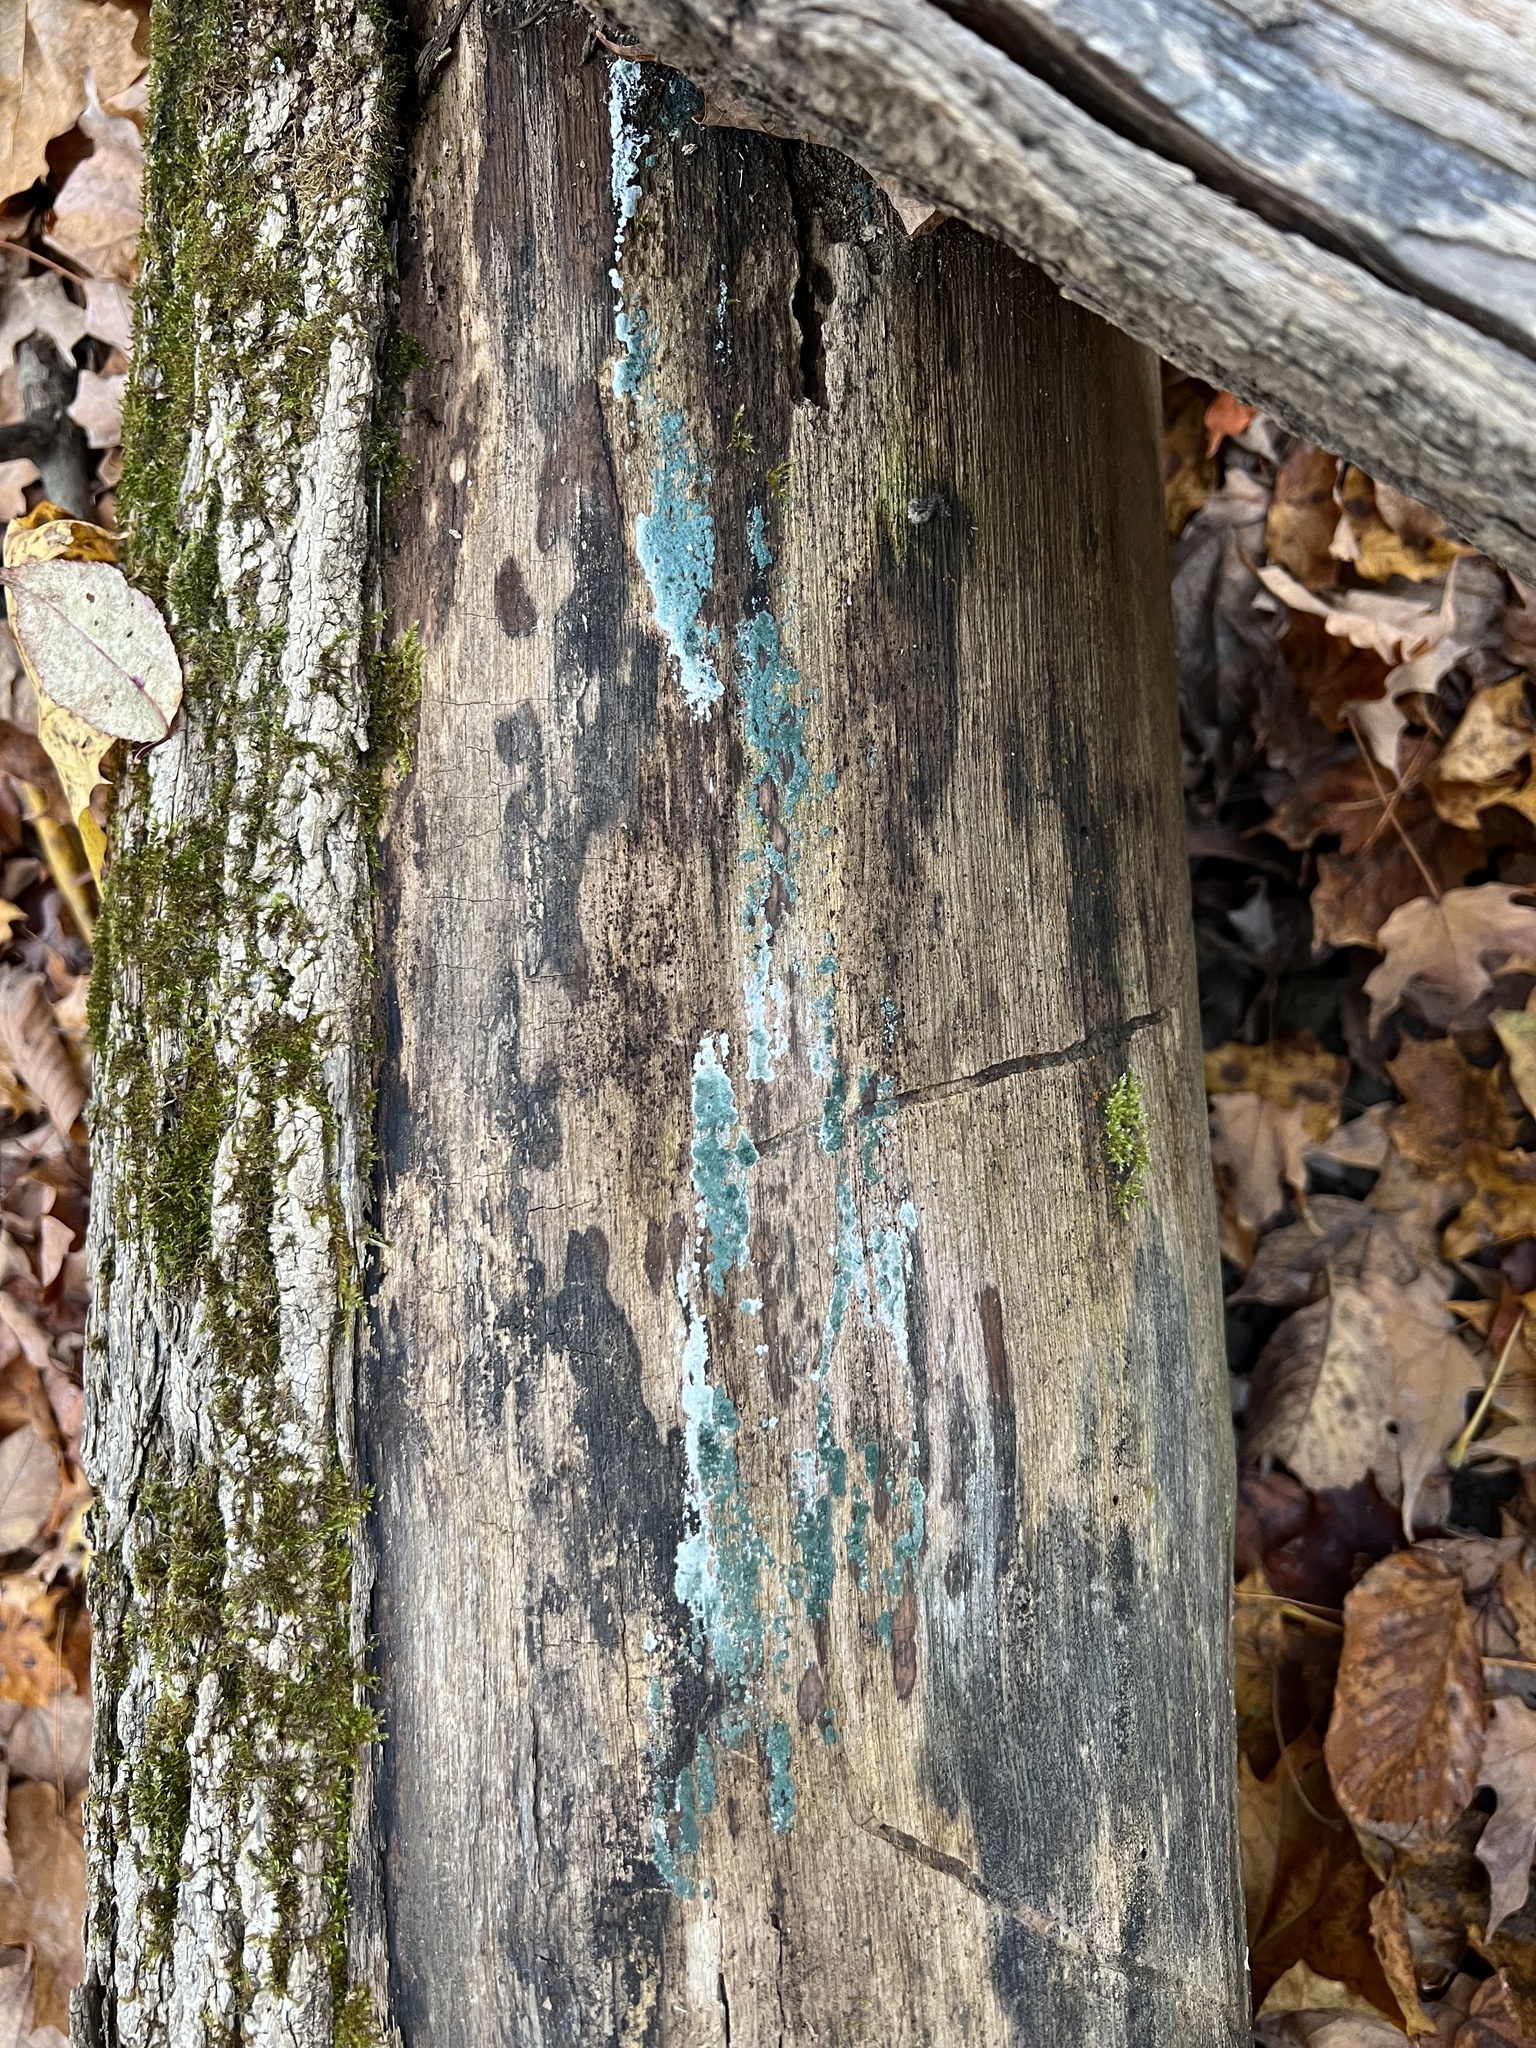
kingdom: Fungi
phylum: Ascomycota
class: Sordariomycetes
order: Hypocreales
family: Hypocreaceae
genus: Trichoderma
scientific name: Trichoderma viride
